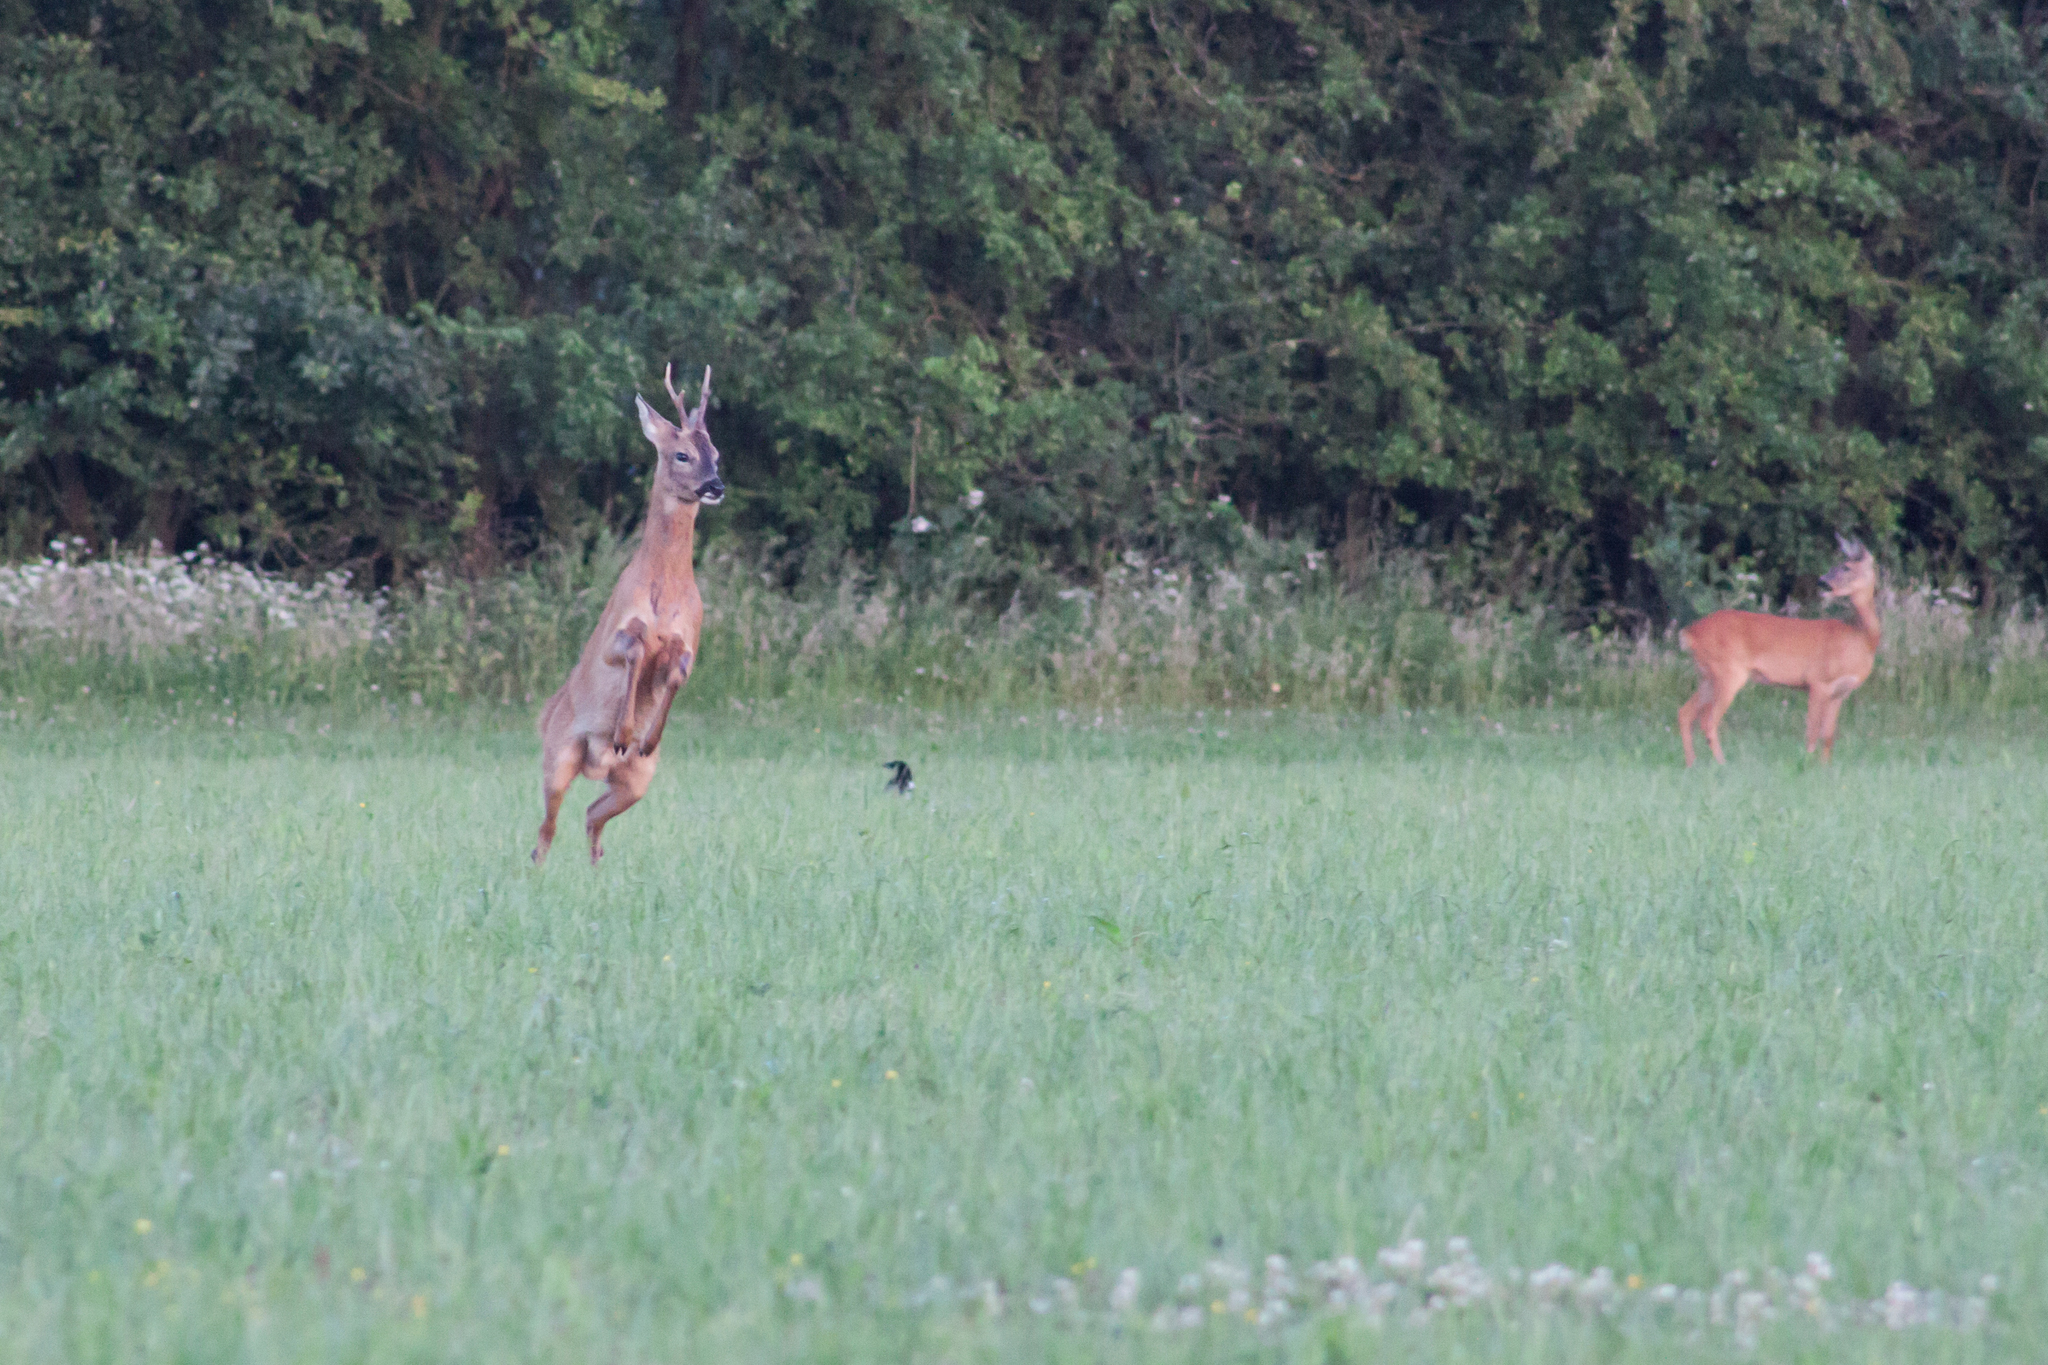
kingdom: Animalia
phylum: Chordata
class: Mammalia
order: Artiodactyla
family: Cervidae
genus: Capreolus
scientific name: Capreolus capreolus
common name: Western roe deer
